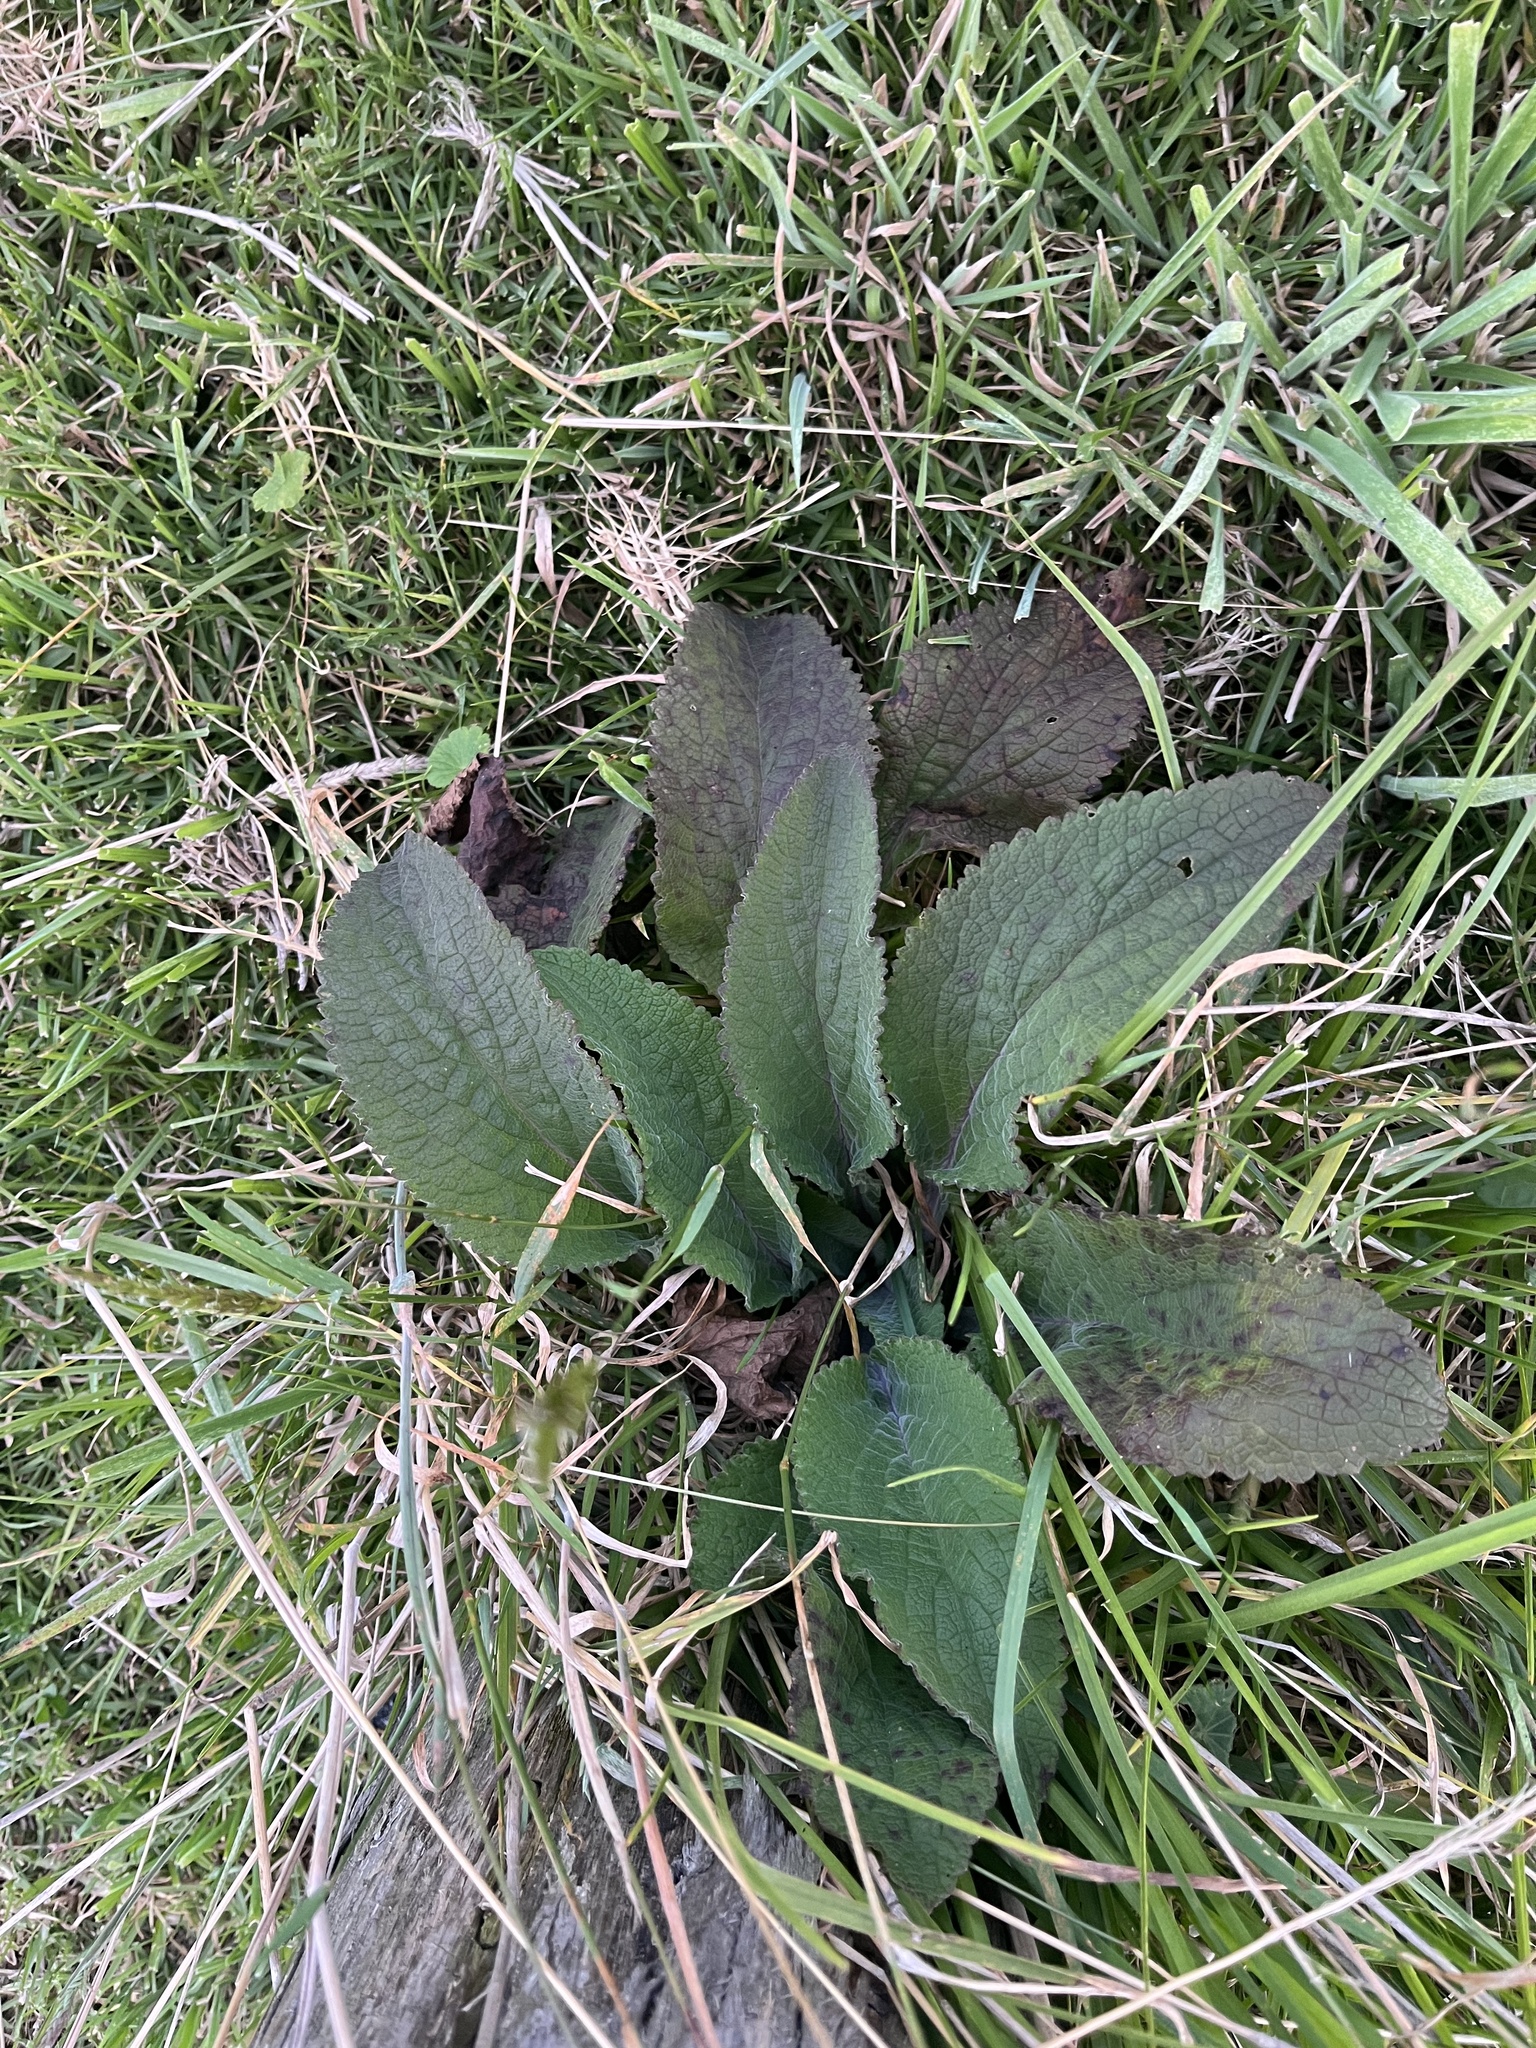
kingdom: Plantae
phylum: Tracheophyta
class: Magnoliopsida
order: Lamiales
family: Plantaginaceae
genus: Digitalis
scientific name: Digitalis purpurea
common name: Foxglove
